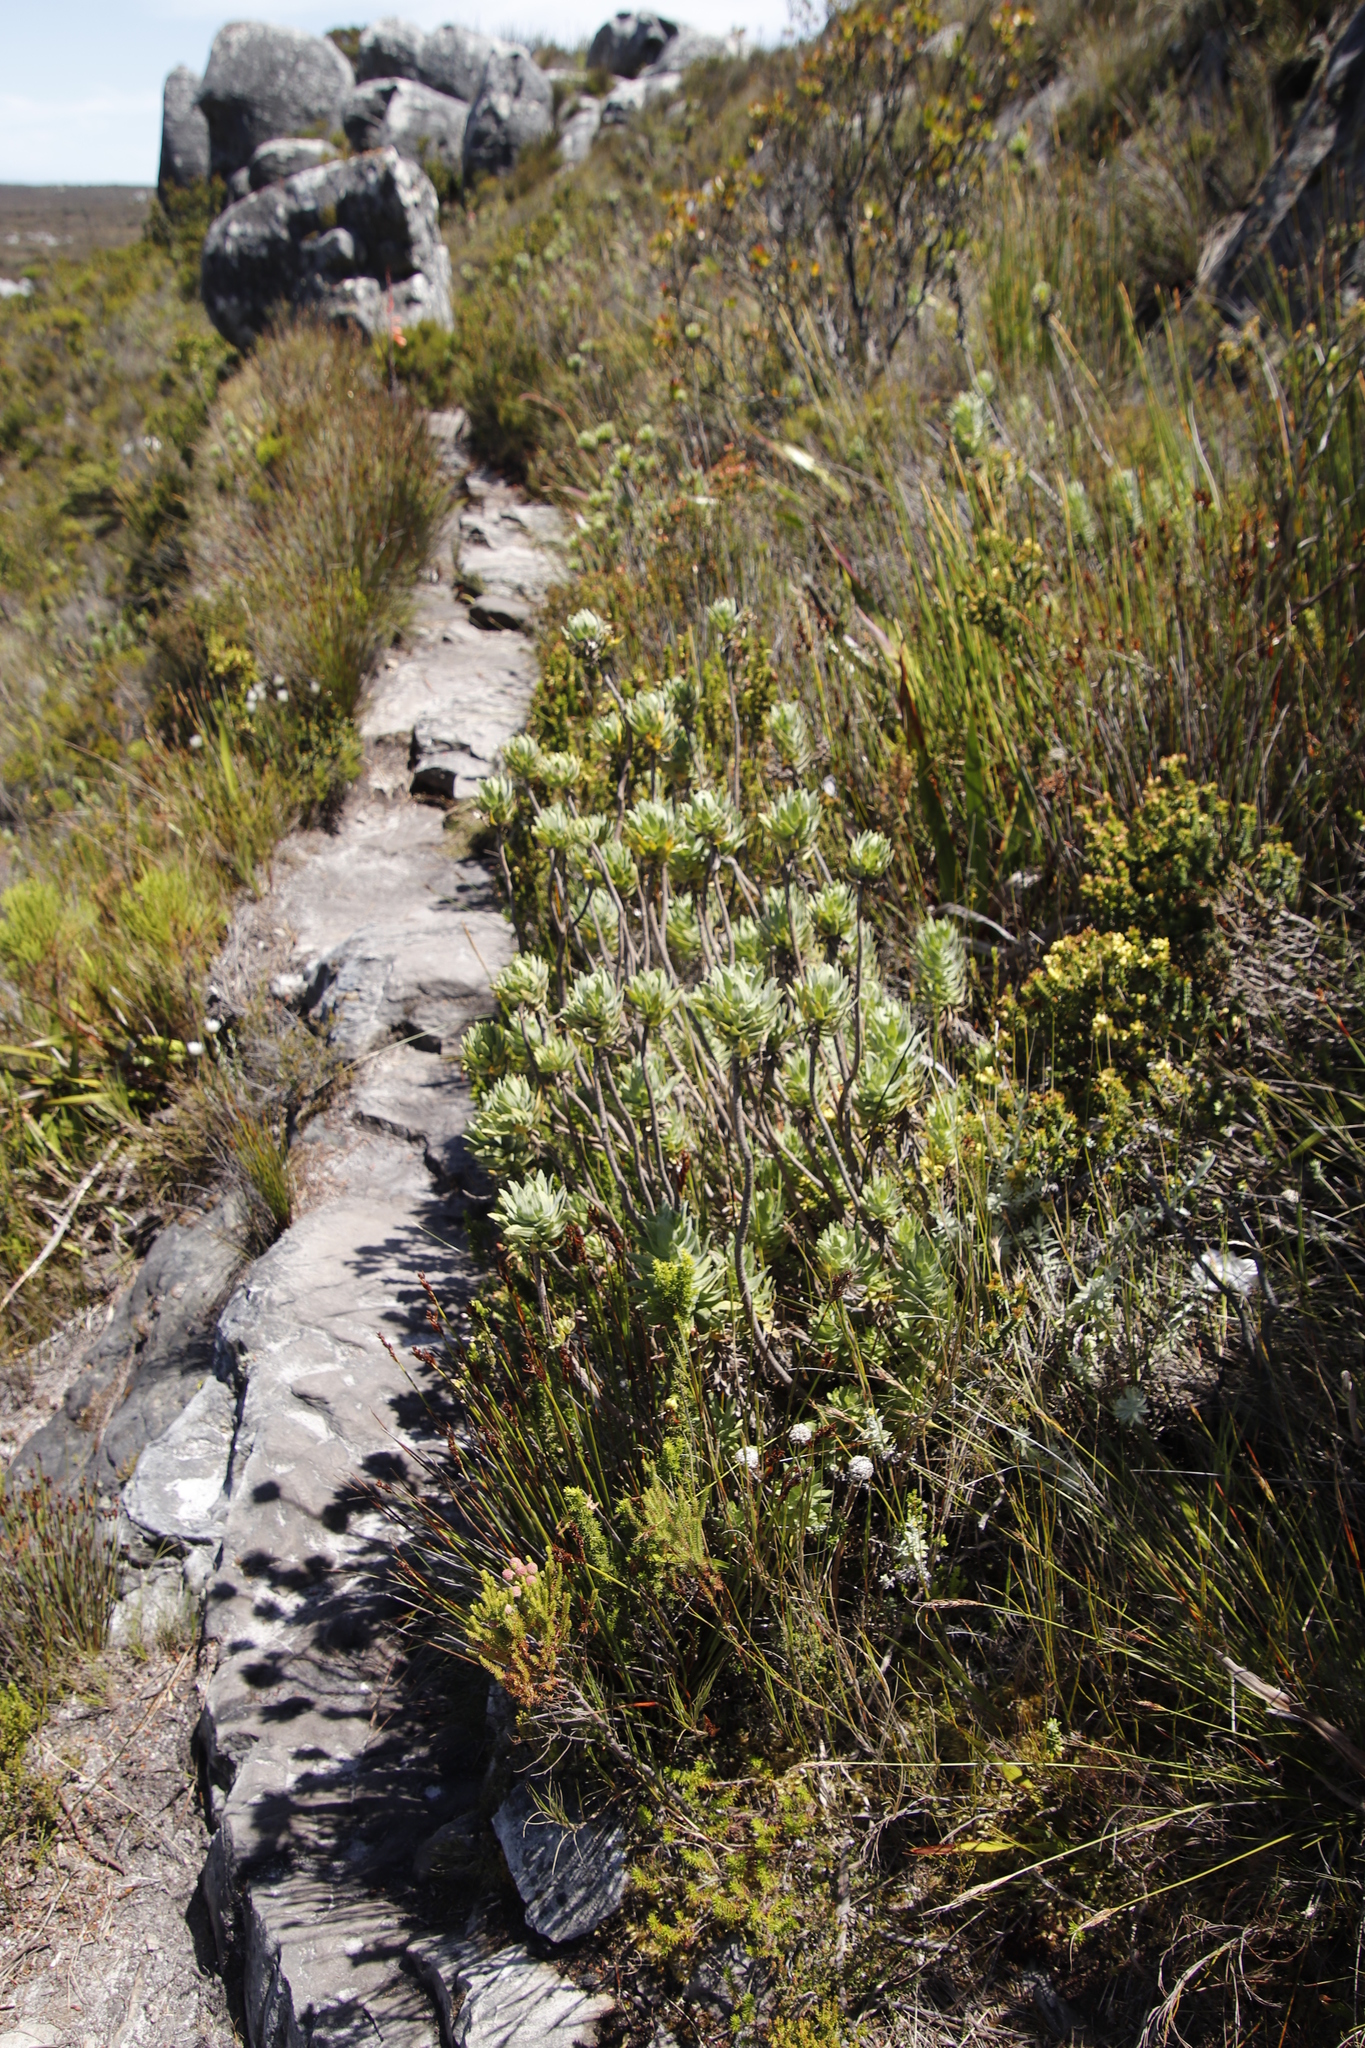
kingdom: Plantae
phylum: Tracheophyta
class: Magnoliopsida
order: Asterales
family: Asteraceae
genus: Osmitopsis
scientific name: Osmitopsis asteriscoides
